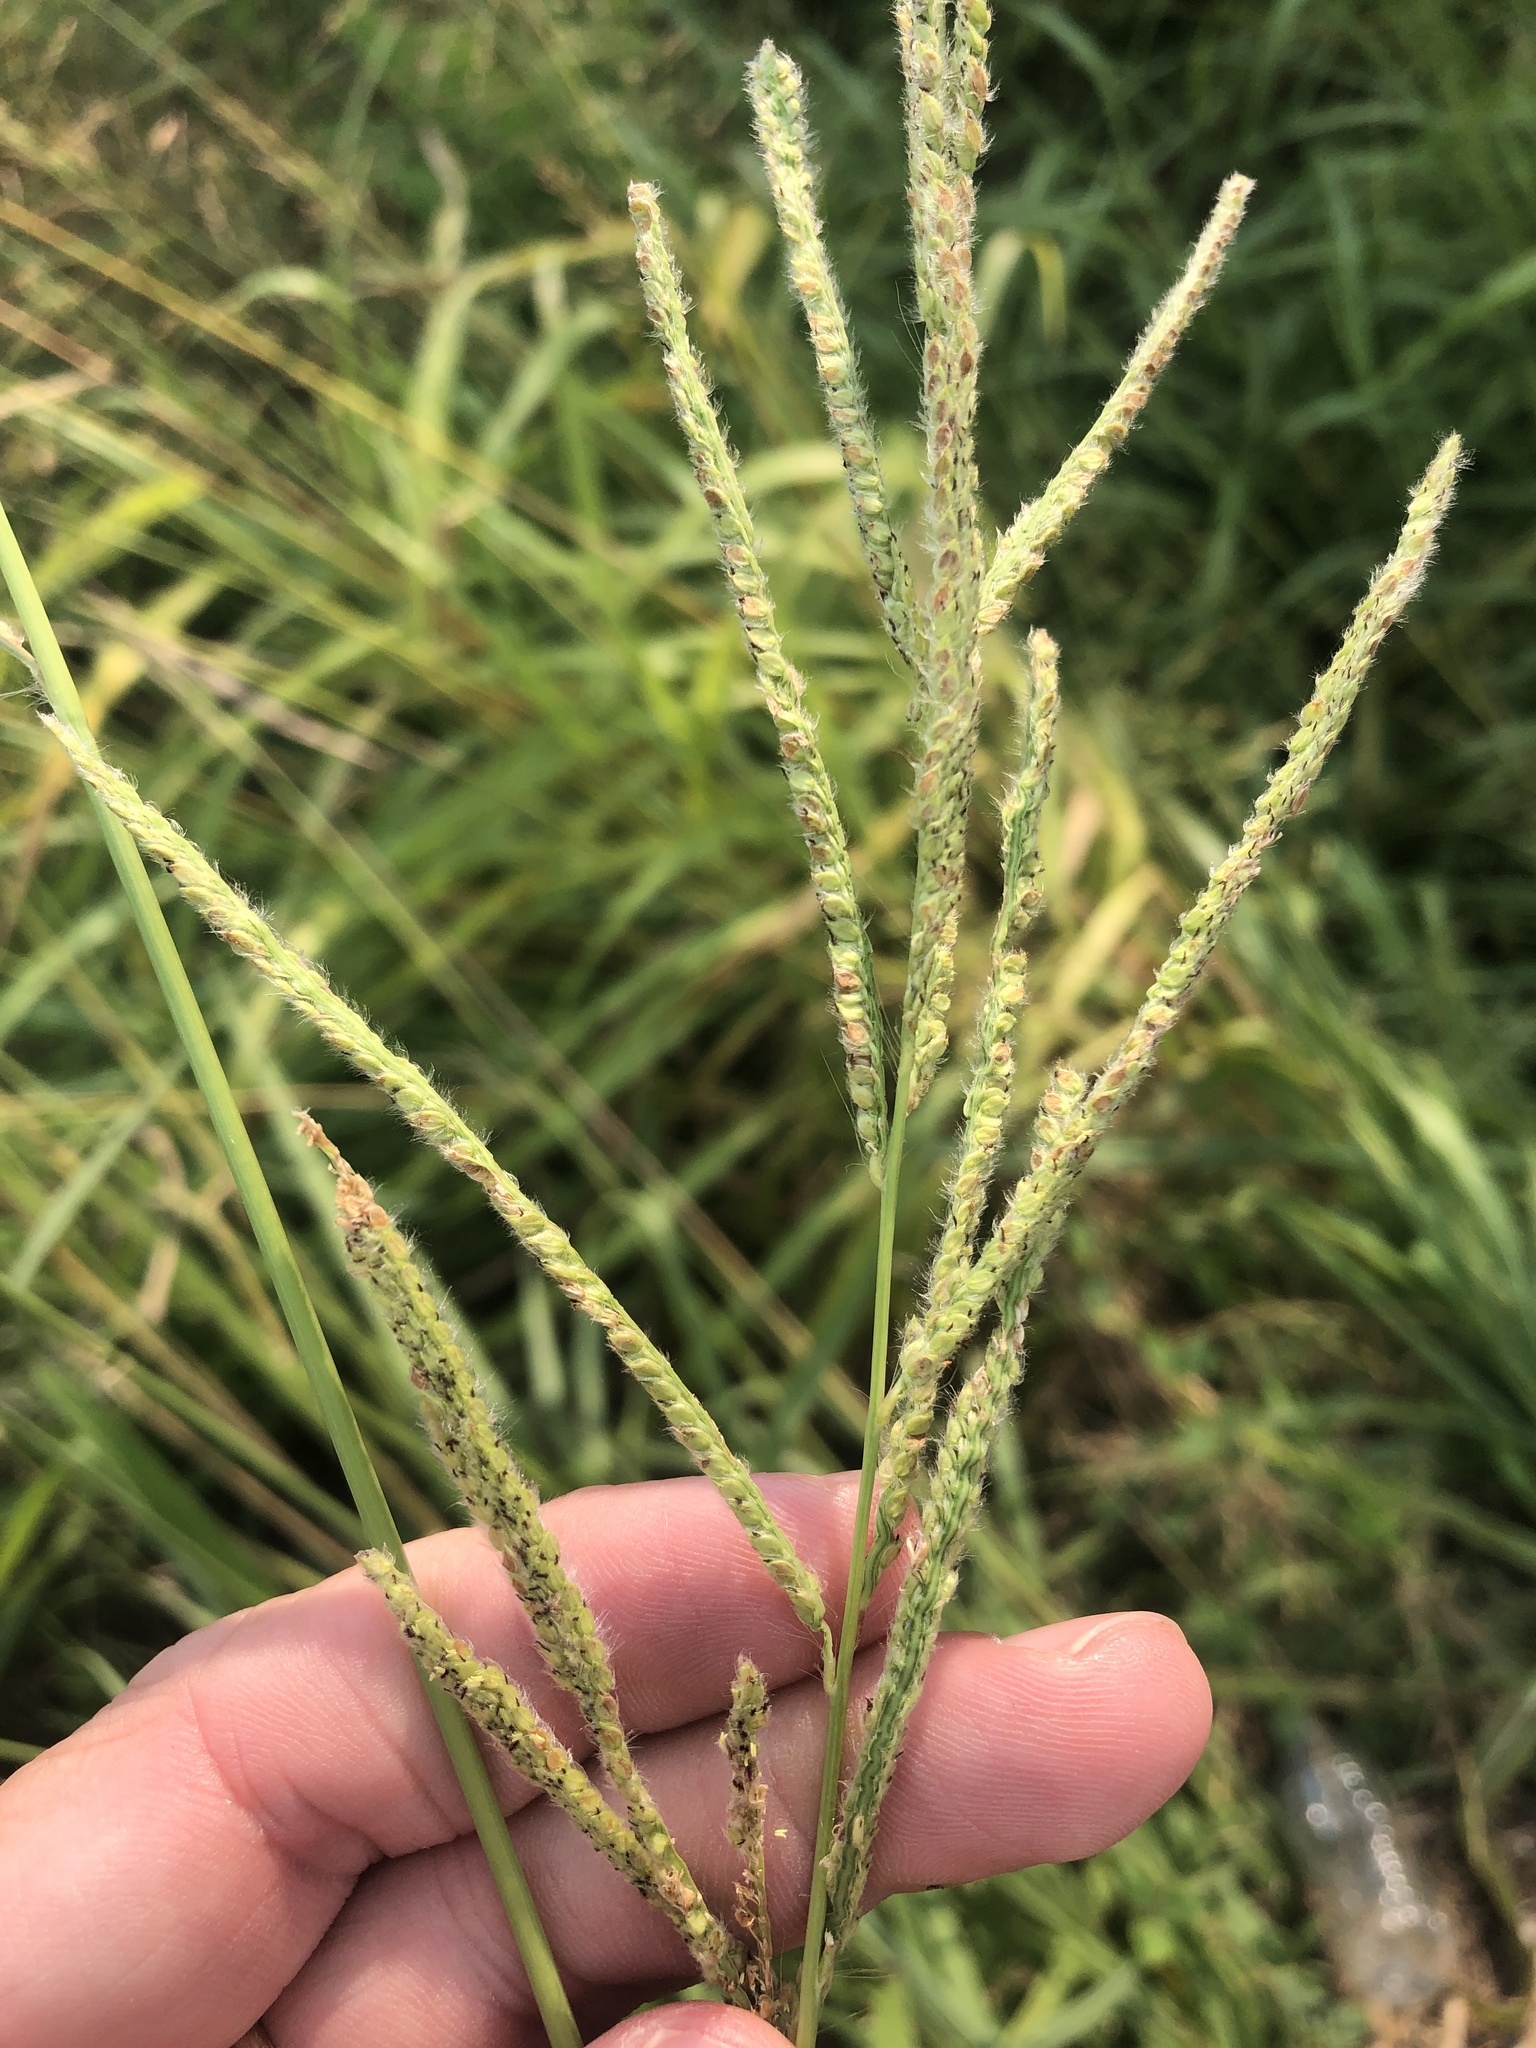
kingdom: Plantae
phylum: Tracheophyta
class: Liliopsida
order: Poales
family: Poaceae
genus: Paspalum
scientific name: Paspalum urvillei
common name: Vasey's grass
